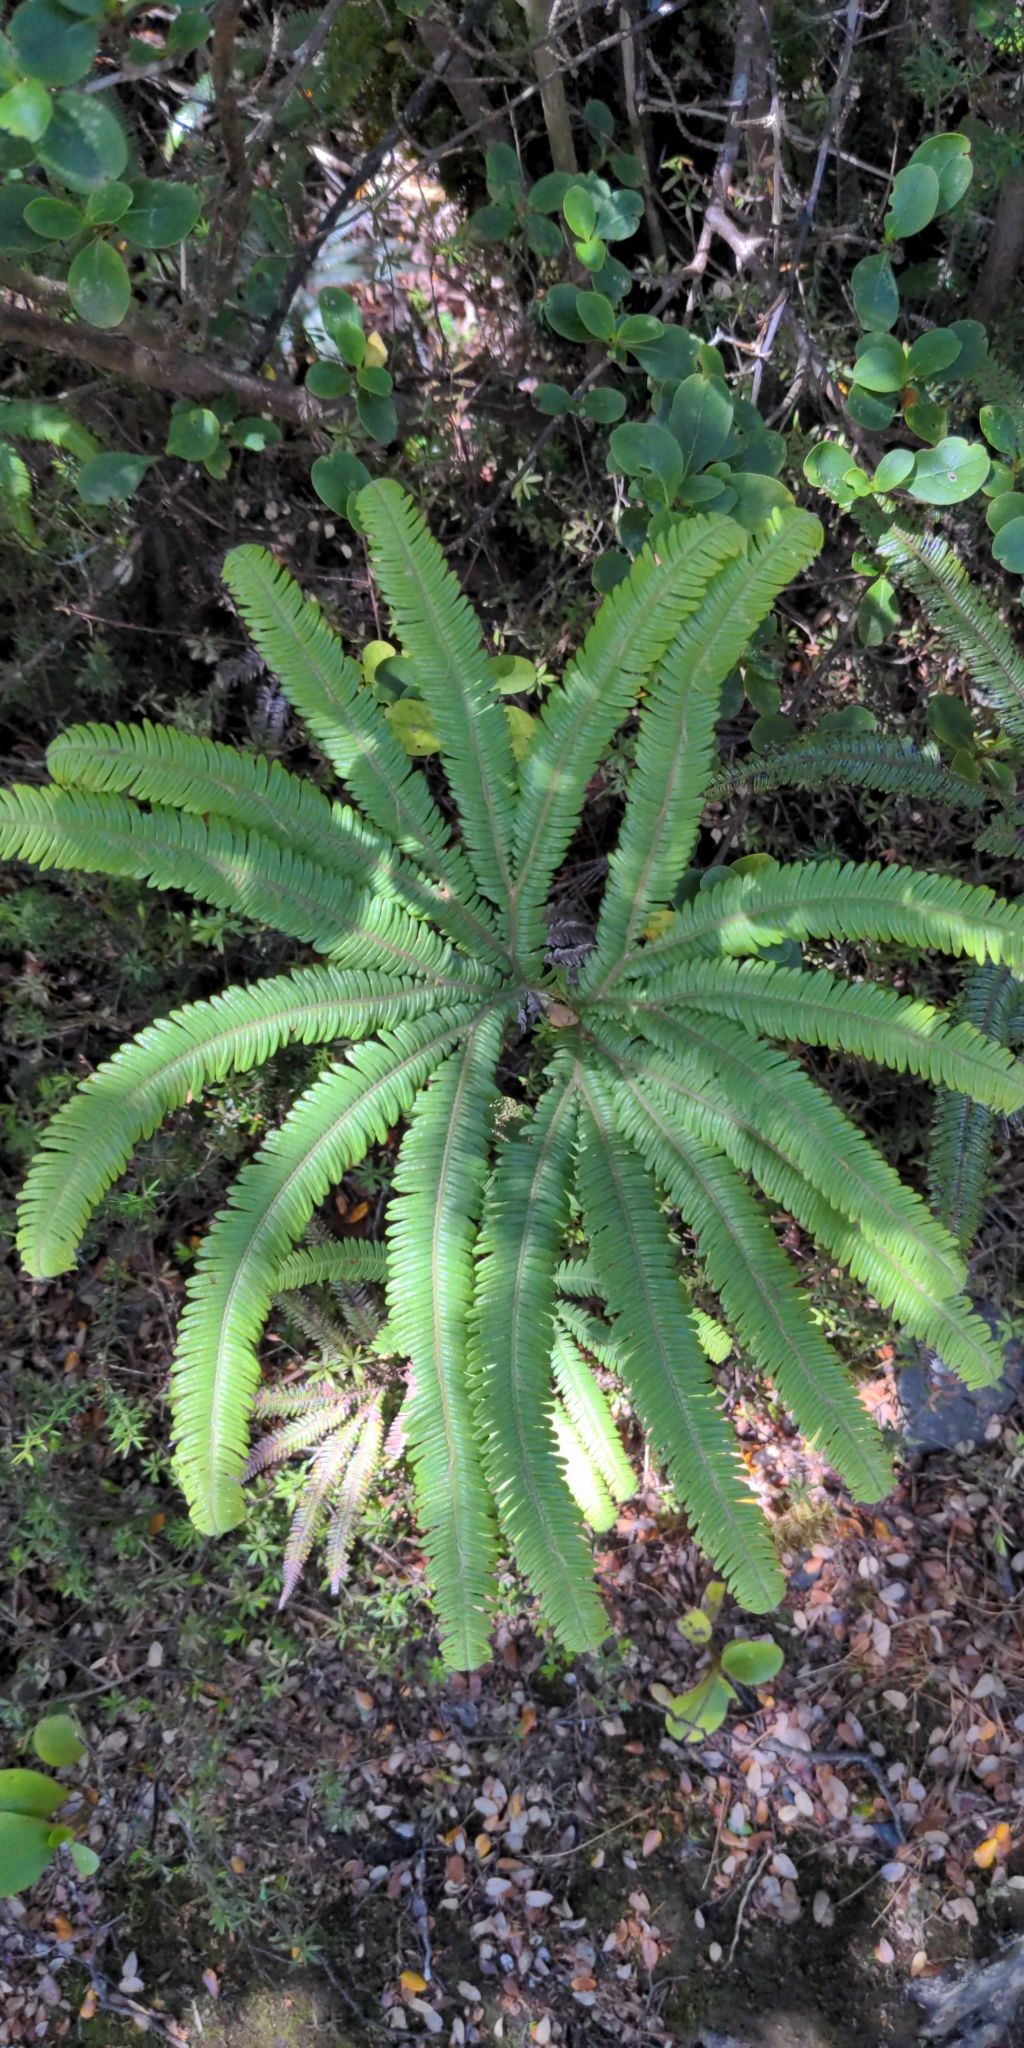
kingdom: Plantae
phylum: Tracheophyta
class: Polypodiopsida
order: Gleicheniales
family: Gleicheniaceae
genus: Sticherus
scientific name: Sticherus cunninghamii
